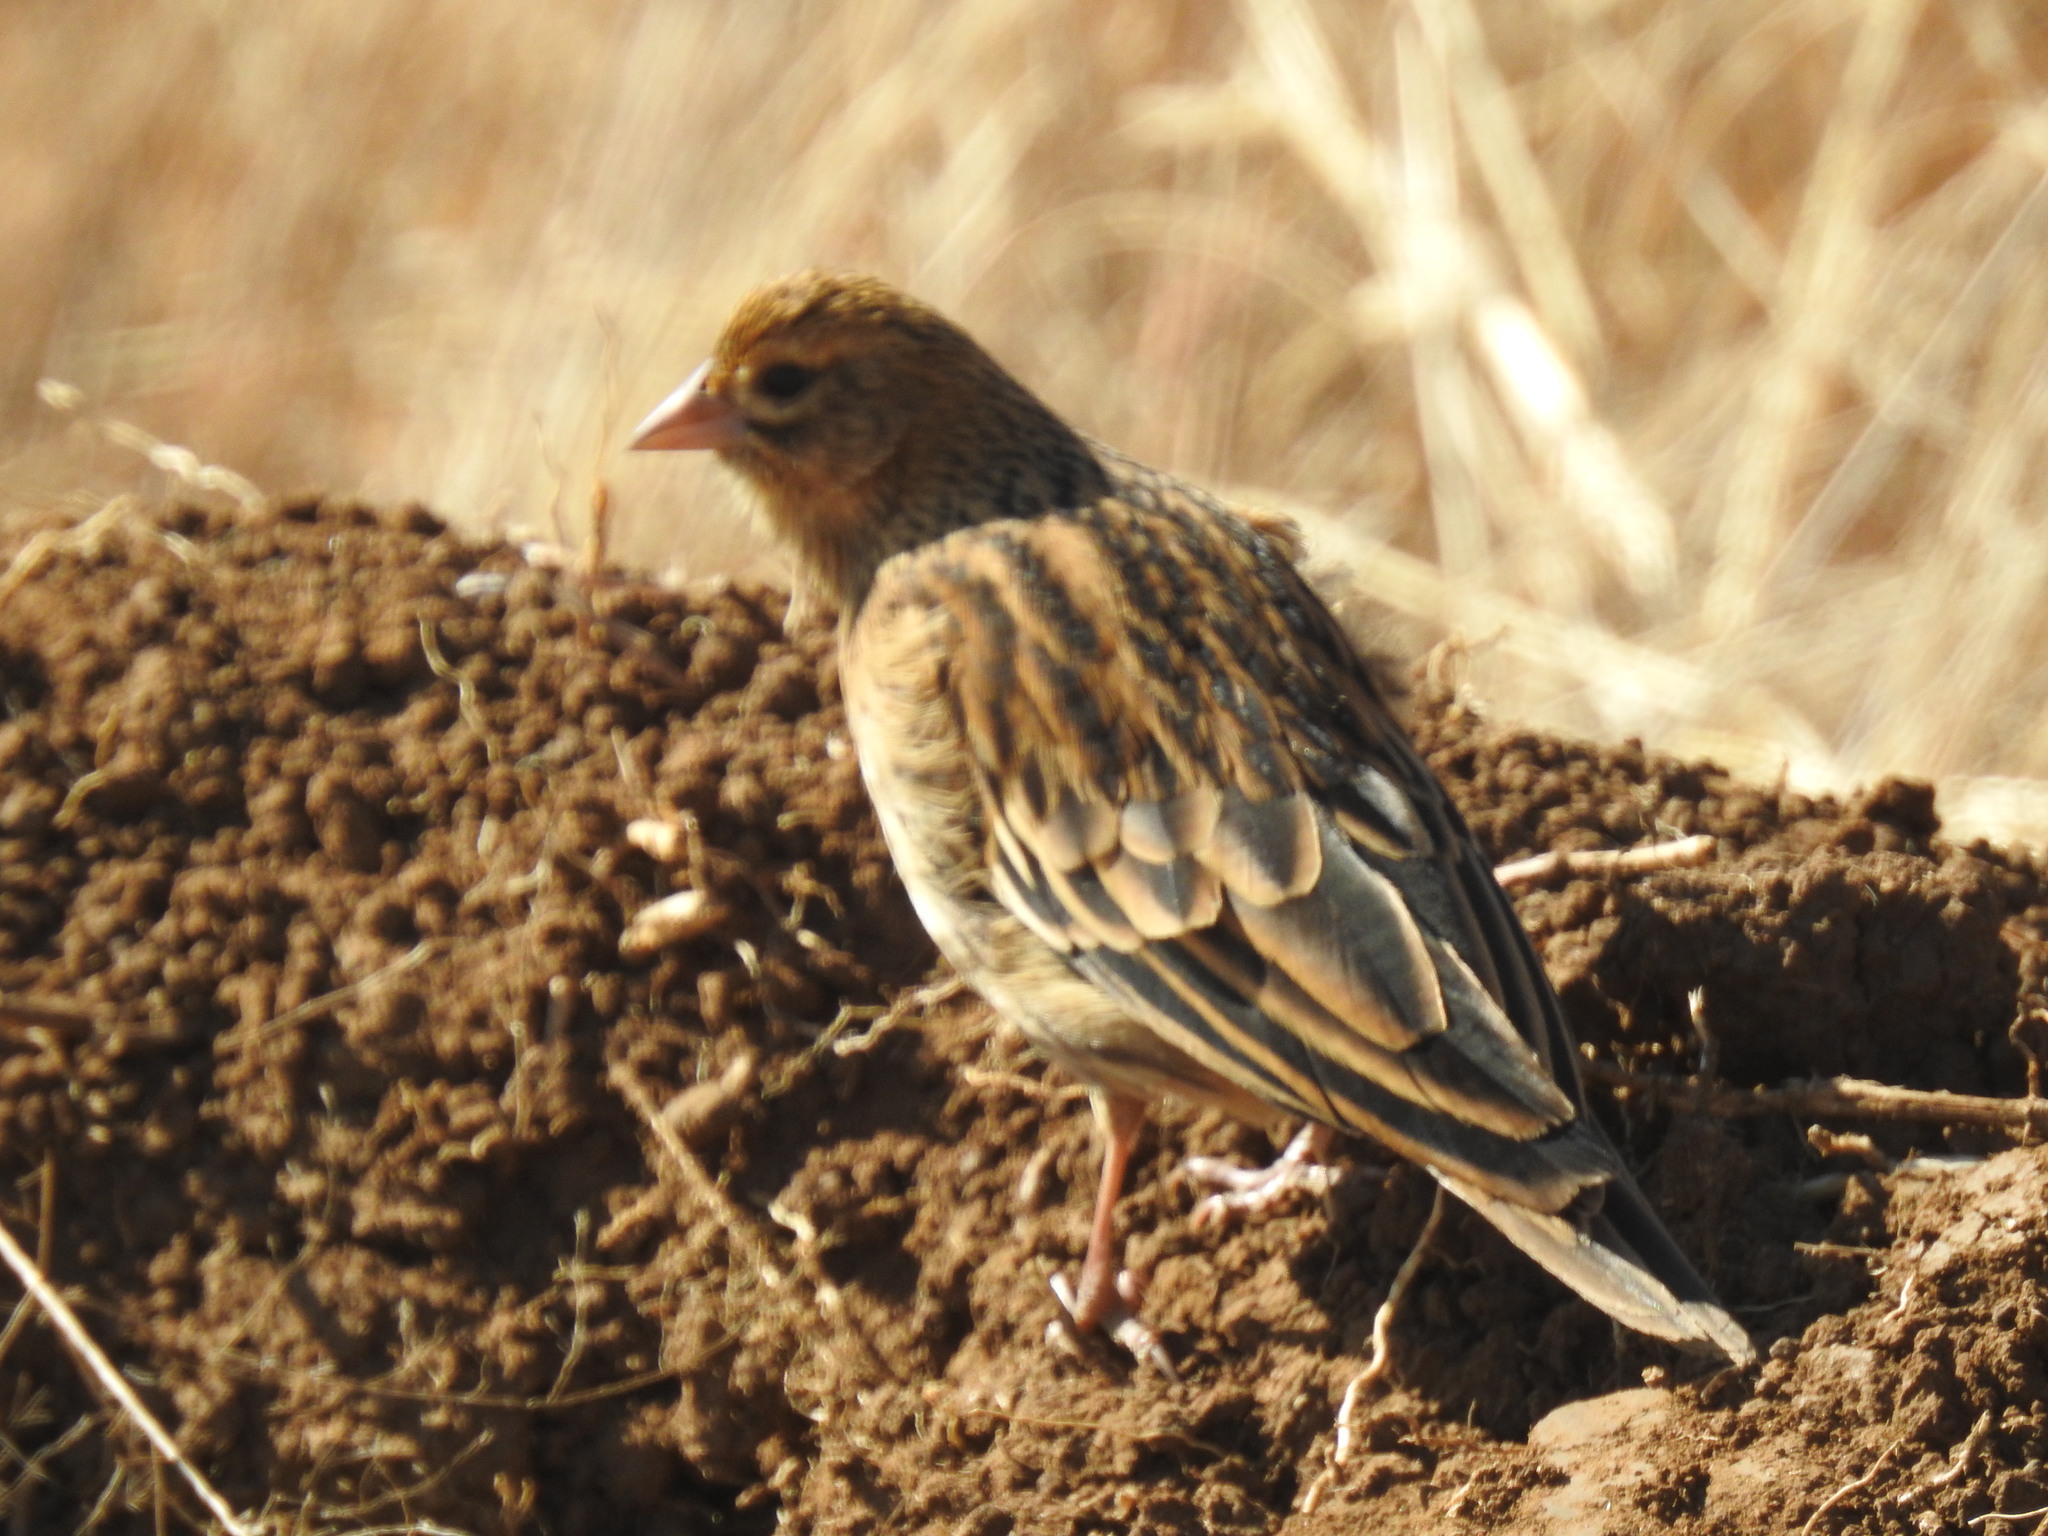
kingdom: Animalia
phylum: Chordata
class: Aves
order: Passeriformes
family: Ploceidae
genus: Euplectes
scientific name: Euplectes progne
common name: Long-tailed widowbird
